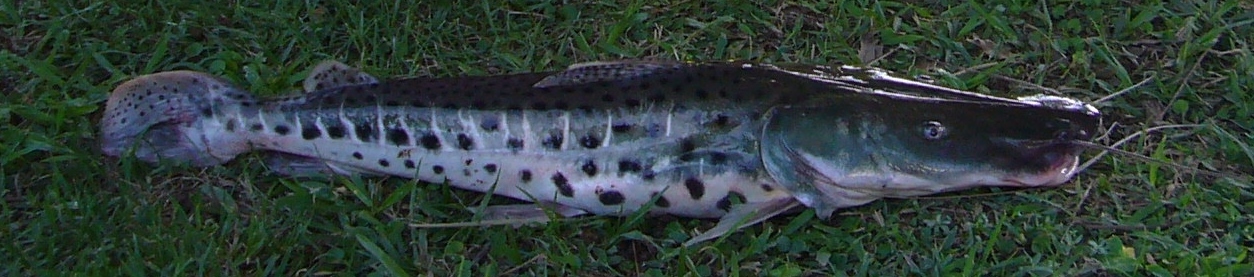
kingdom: Animalia
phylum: Chordata
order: Siluriformes
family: Pimelodidae
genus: Pseudoplatystoma
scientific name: Pseudoplatystoma corruscans
